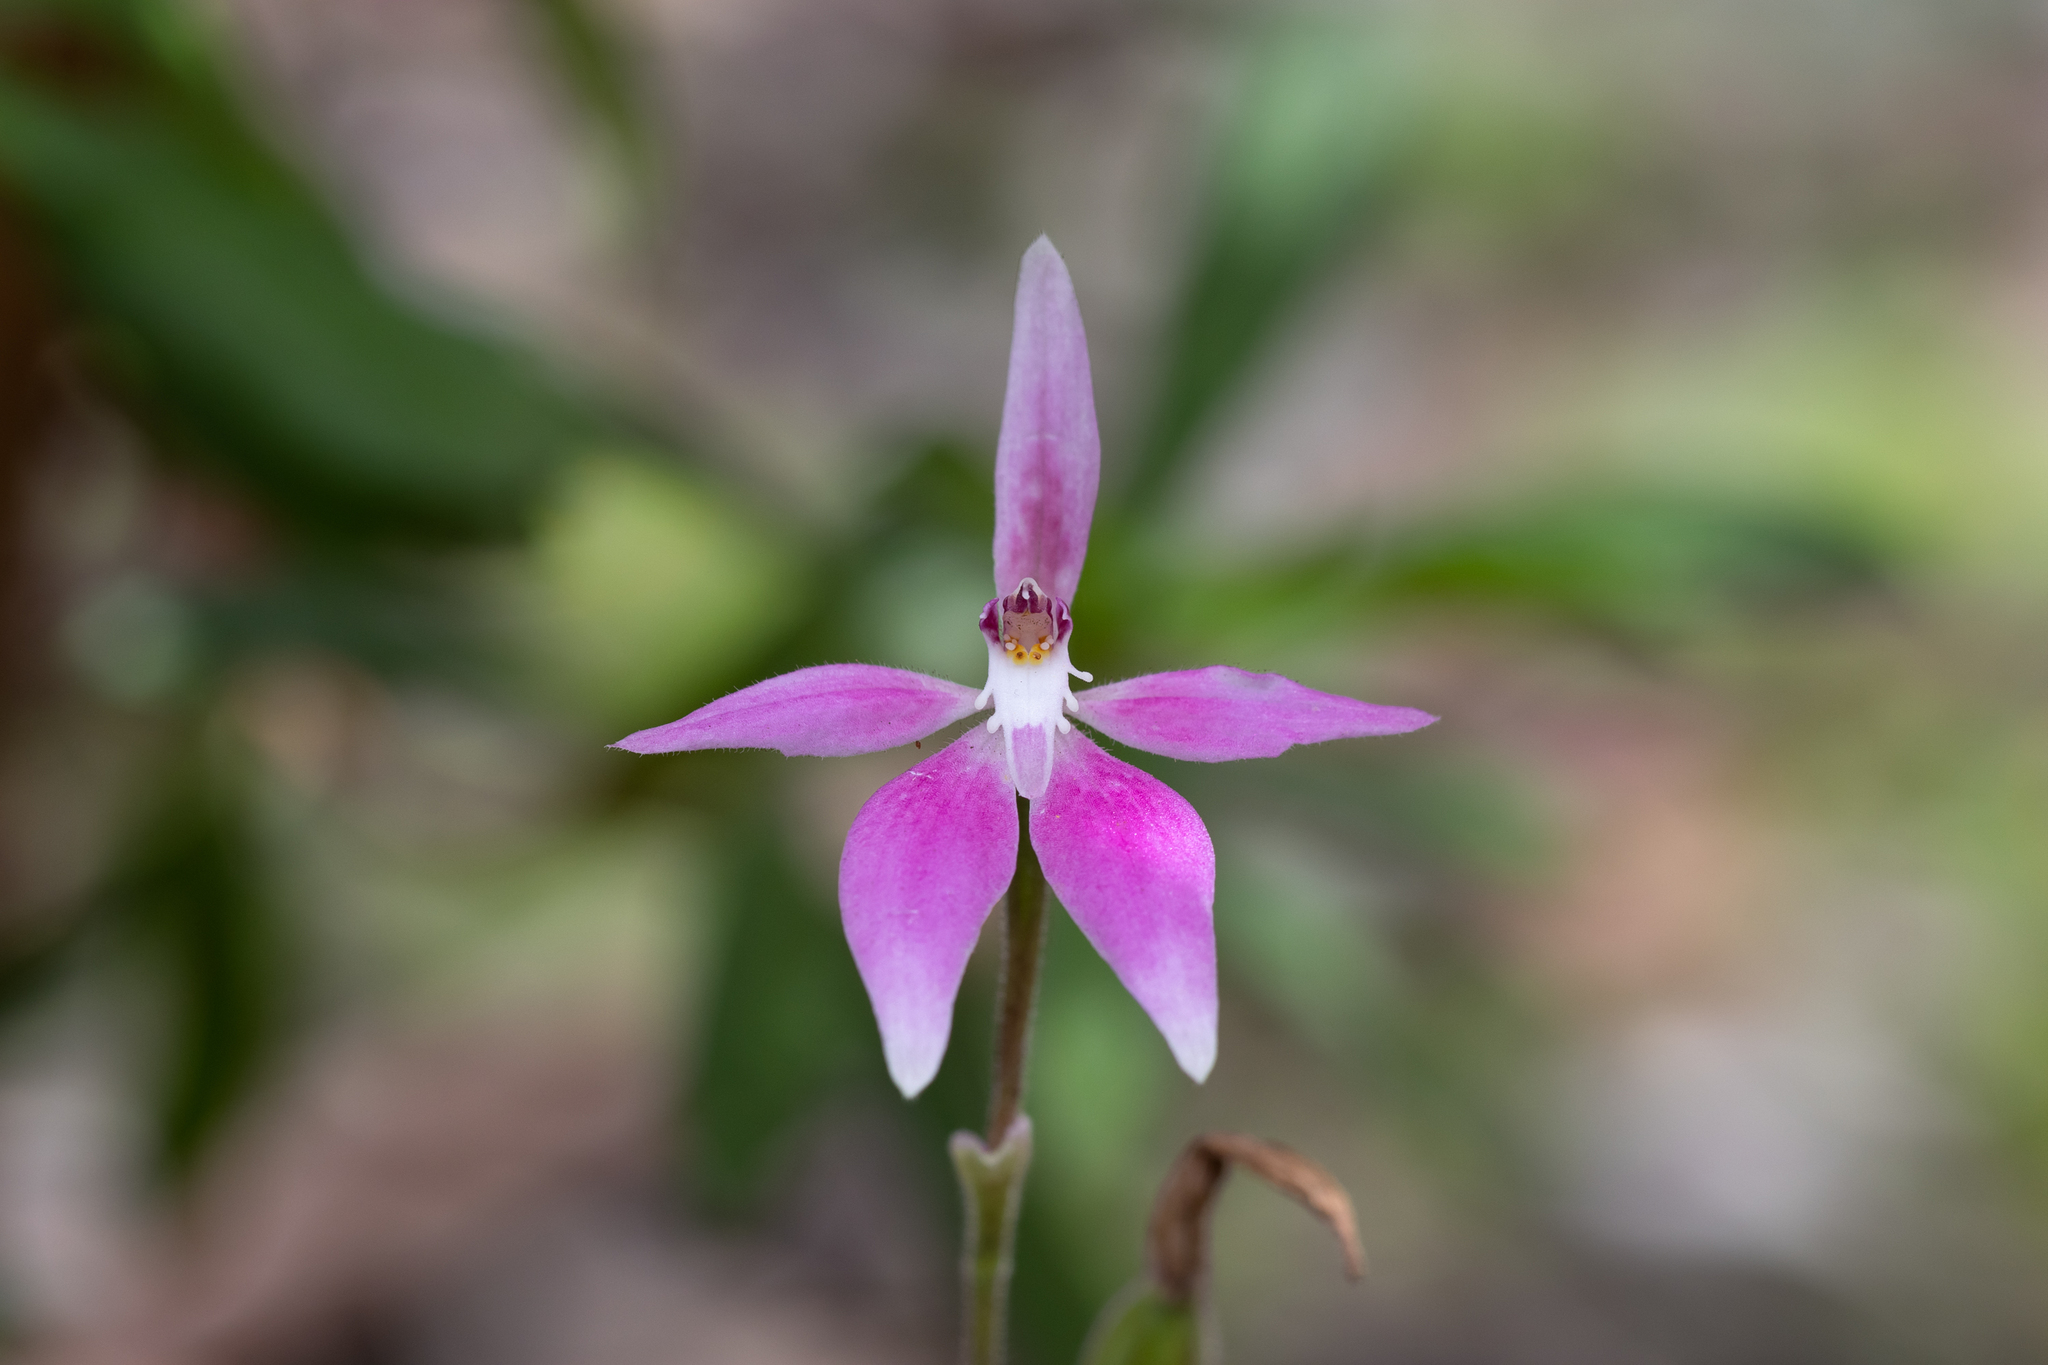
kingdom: Plantae
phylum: Tracheophyta
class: Liliopsida
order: Asparagales
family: Orchidaceae
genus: Caladenia
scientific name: Caladenia latifolia
